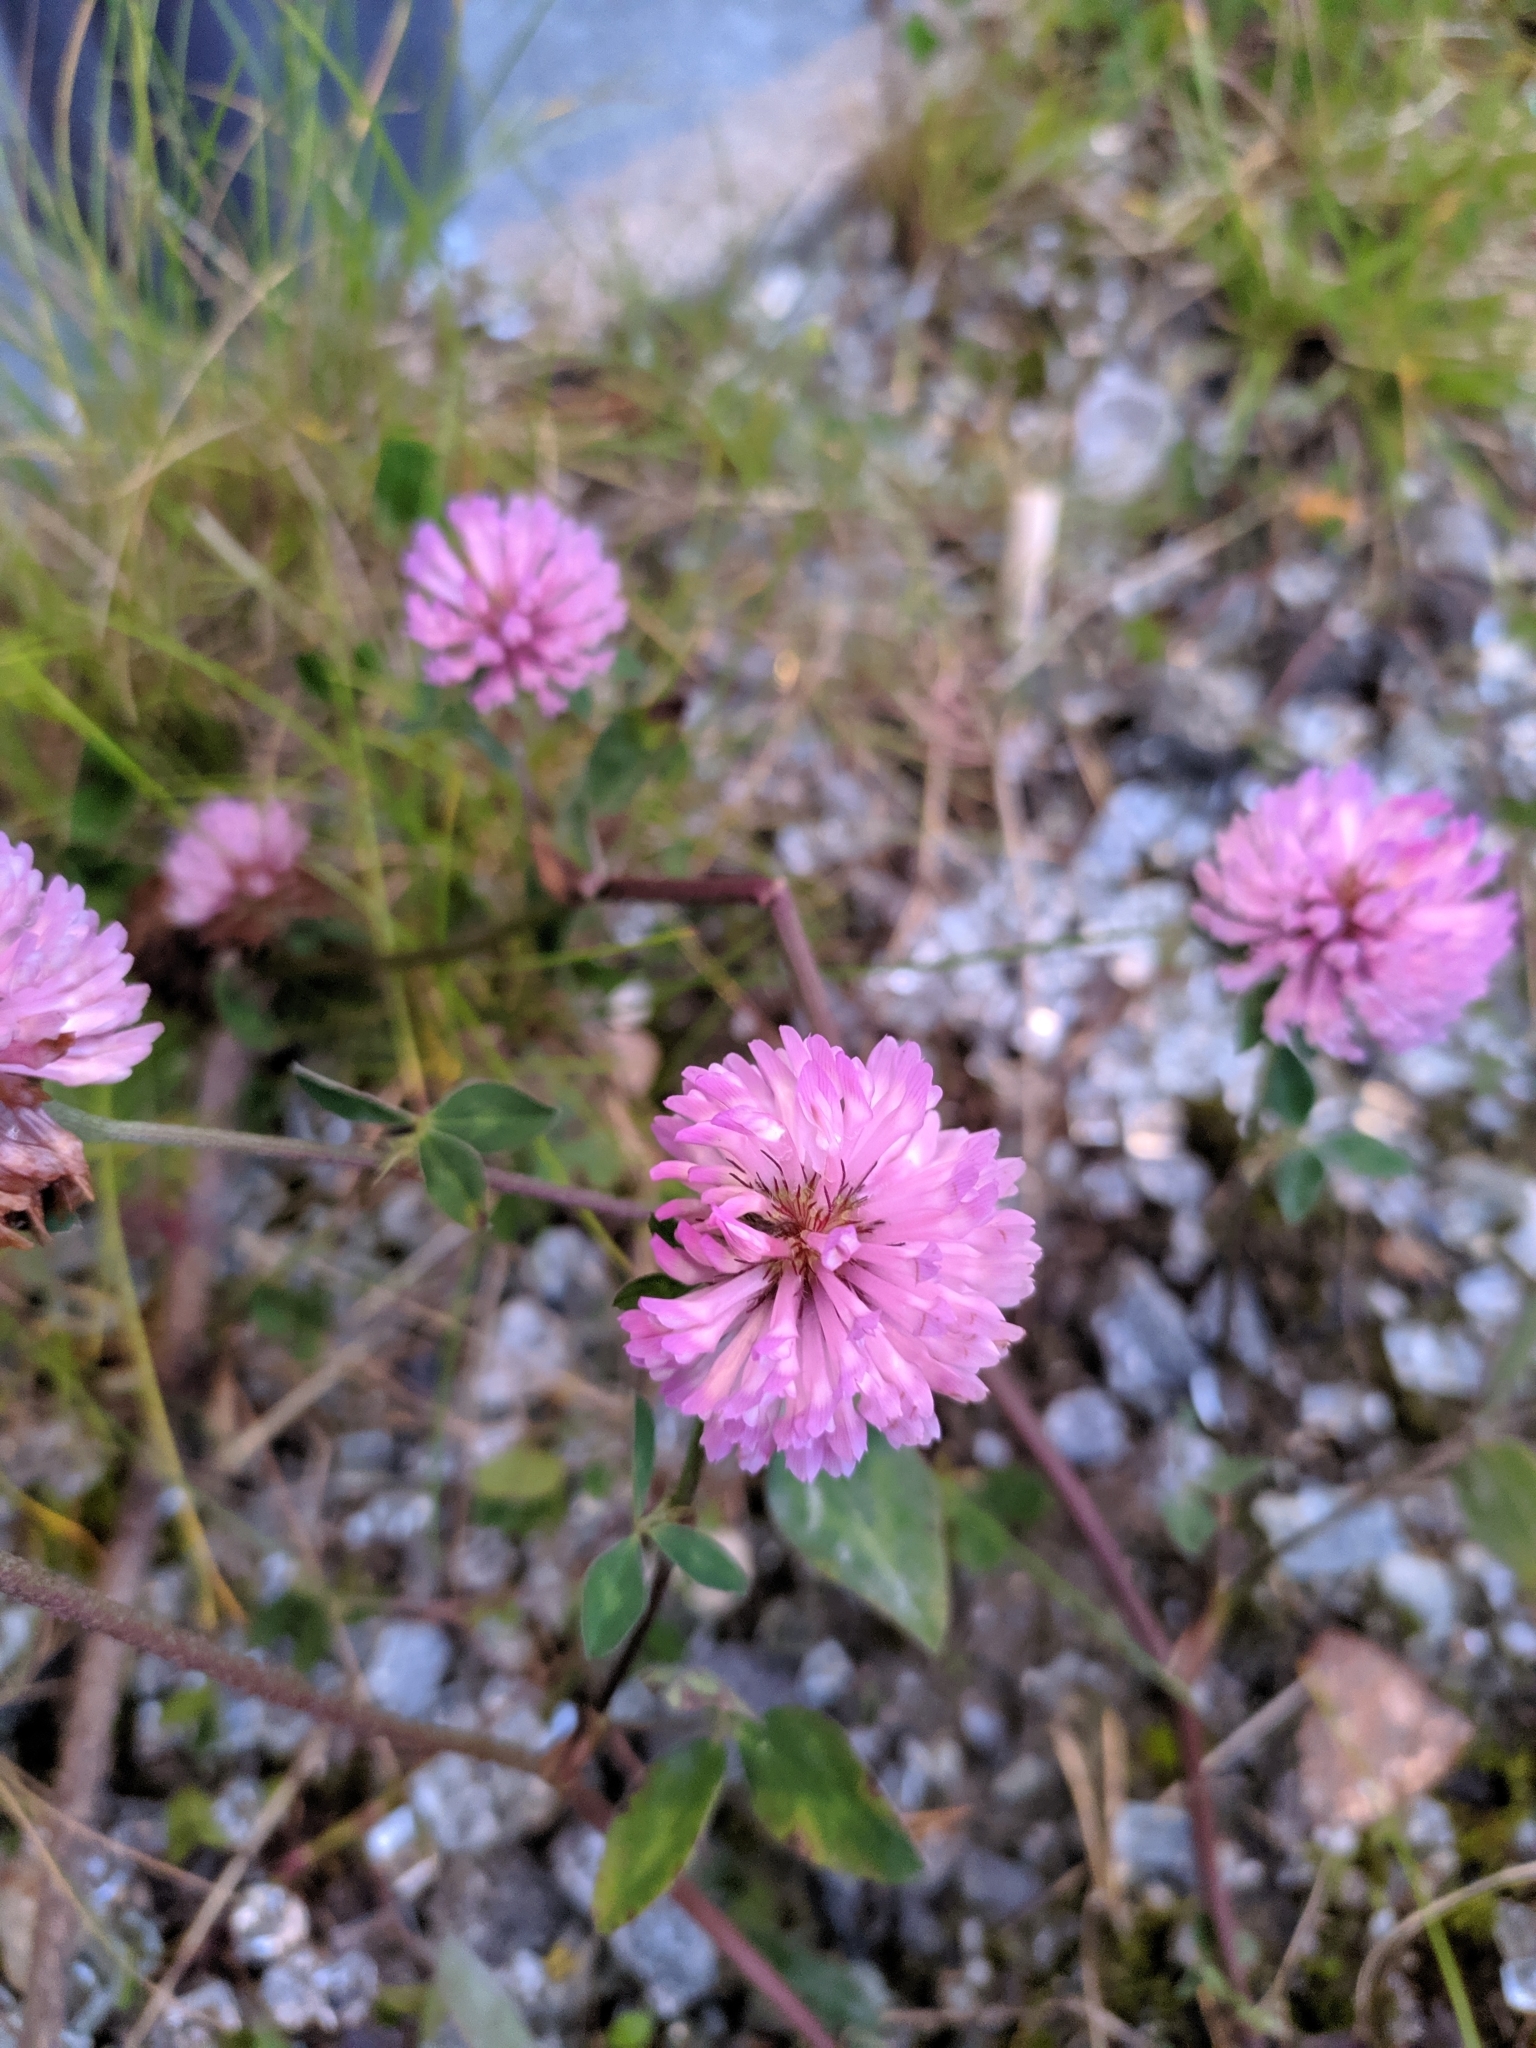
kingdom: Plantae
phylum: Tracheophyta
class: Magnoliopsida
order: Fabales
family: Fabaceae
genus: Trifolium
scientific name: Trifolium pratense
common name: Red clover
